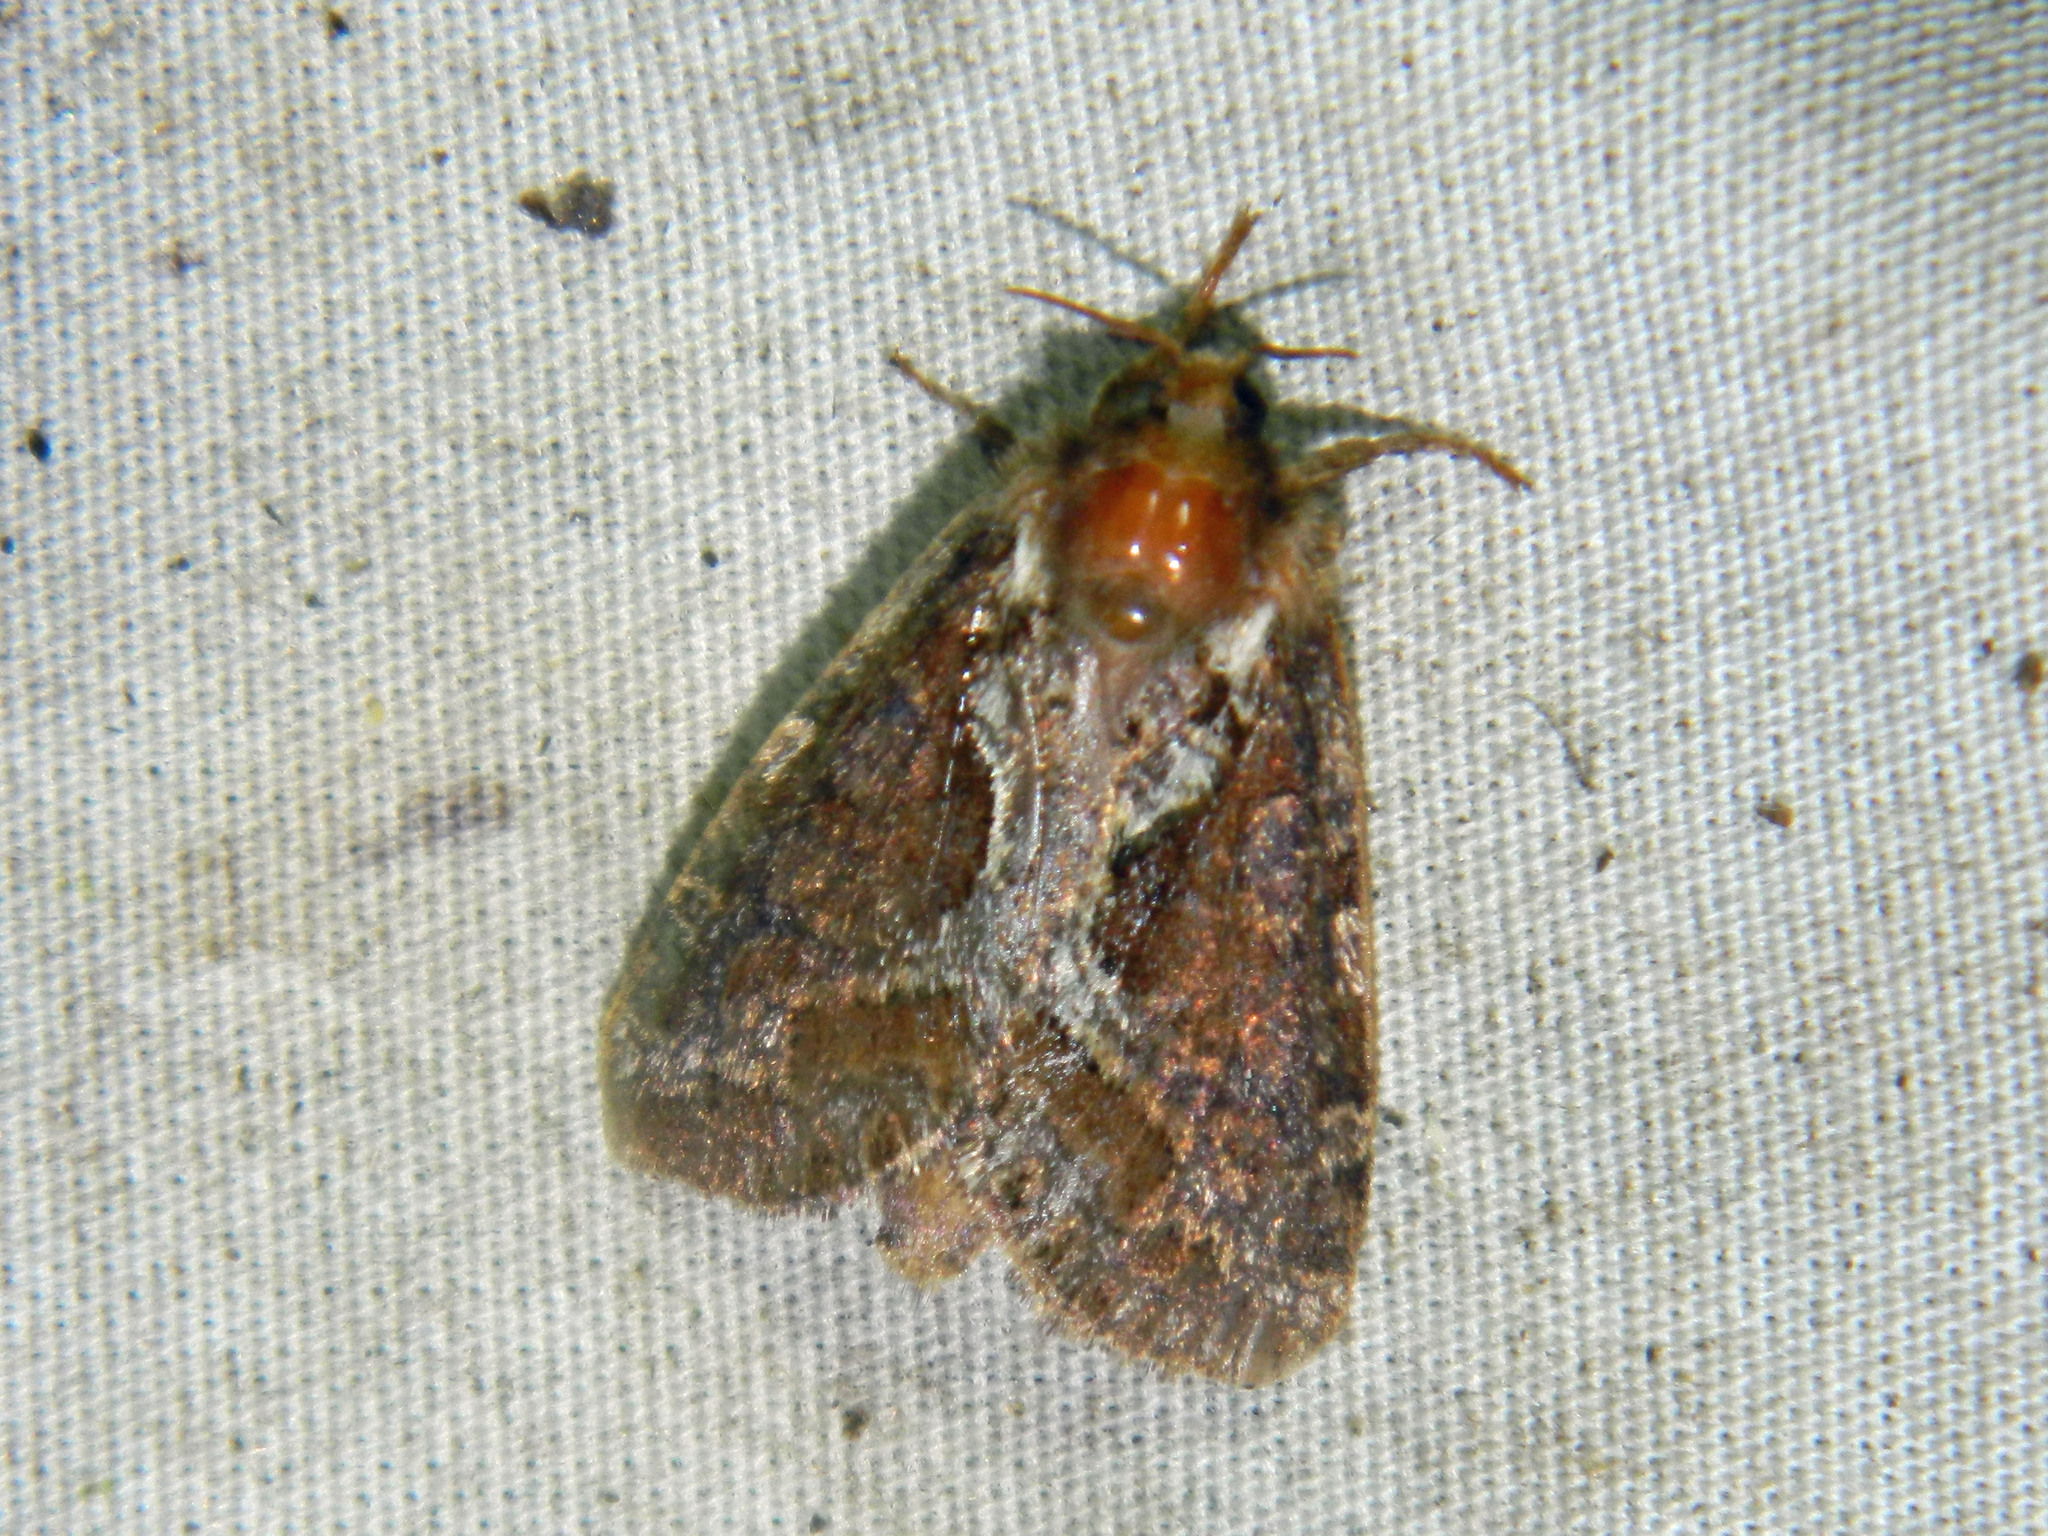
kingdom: Animalia
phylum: Arthropoda
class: Insecta
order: Lepidoptera
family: Hepialidae
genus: Korscheltellus
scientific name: Korscheltellus gracilis
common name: Conifer swift moth
